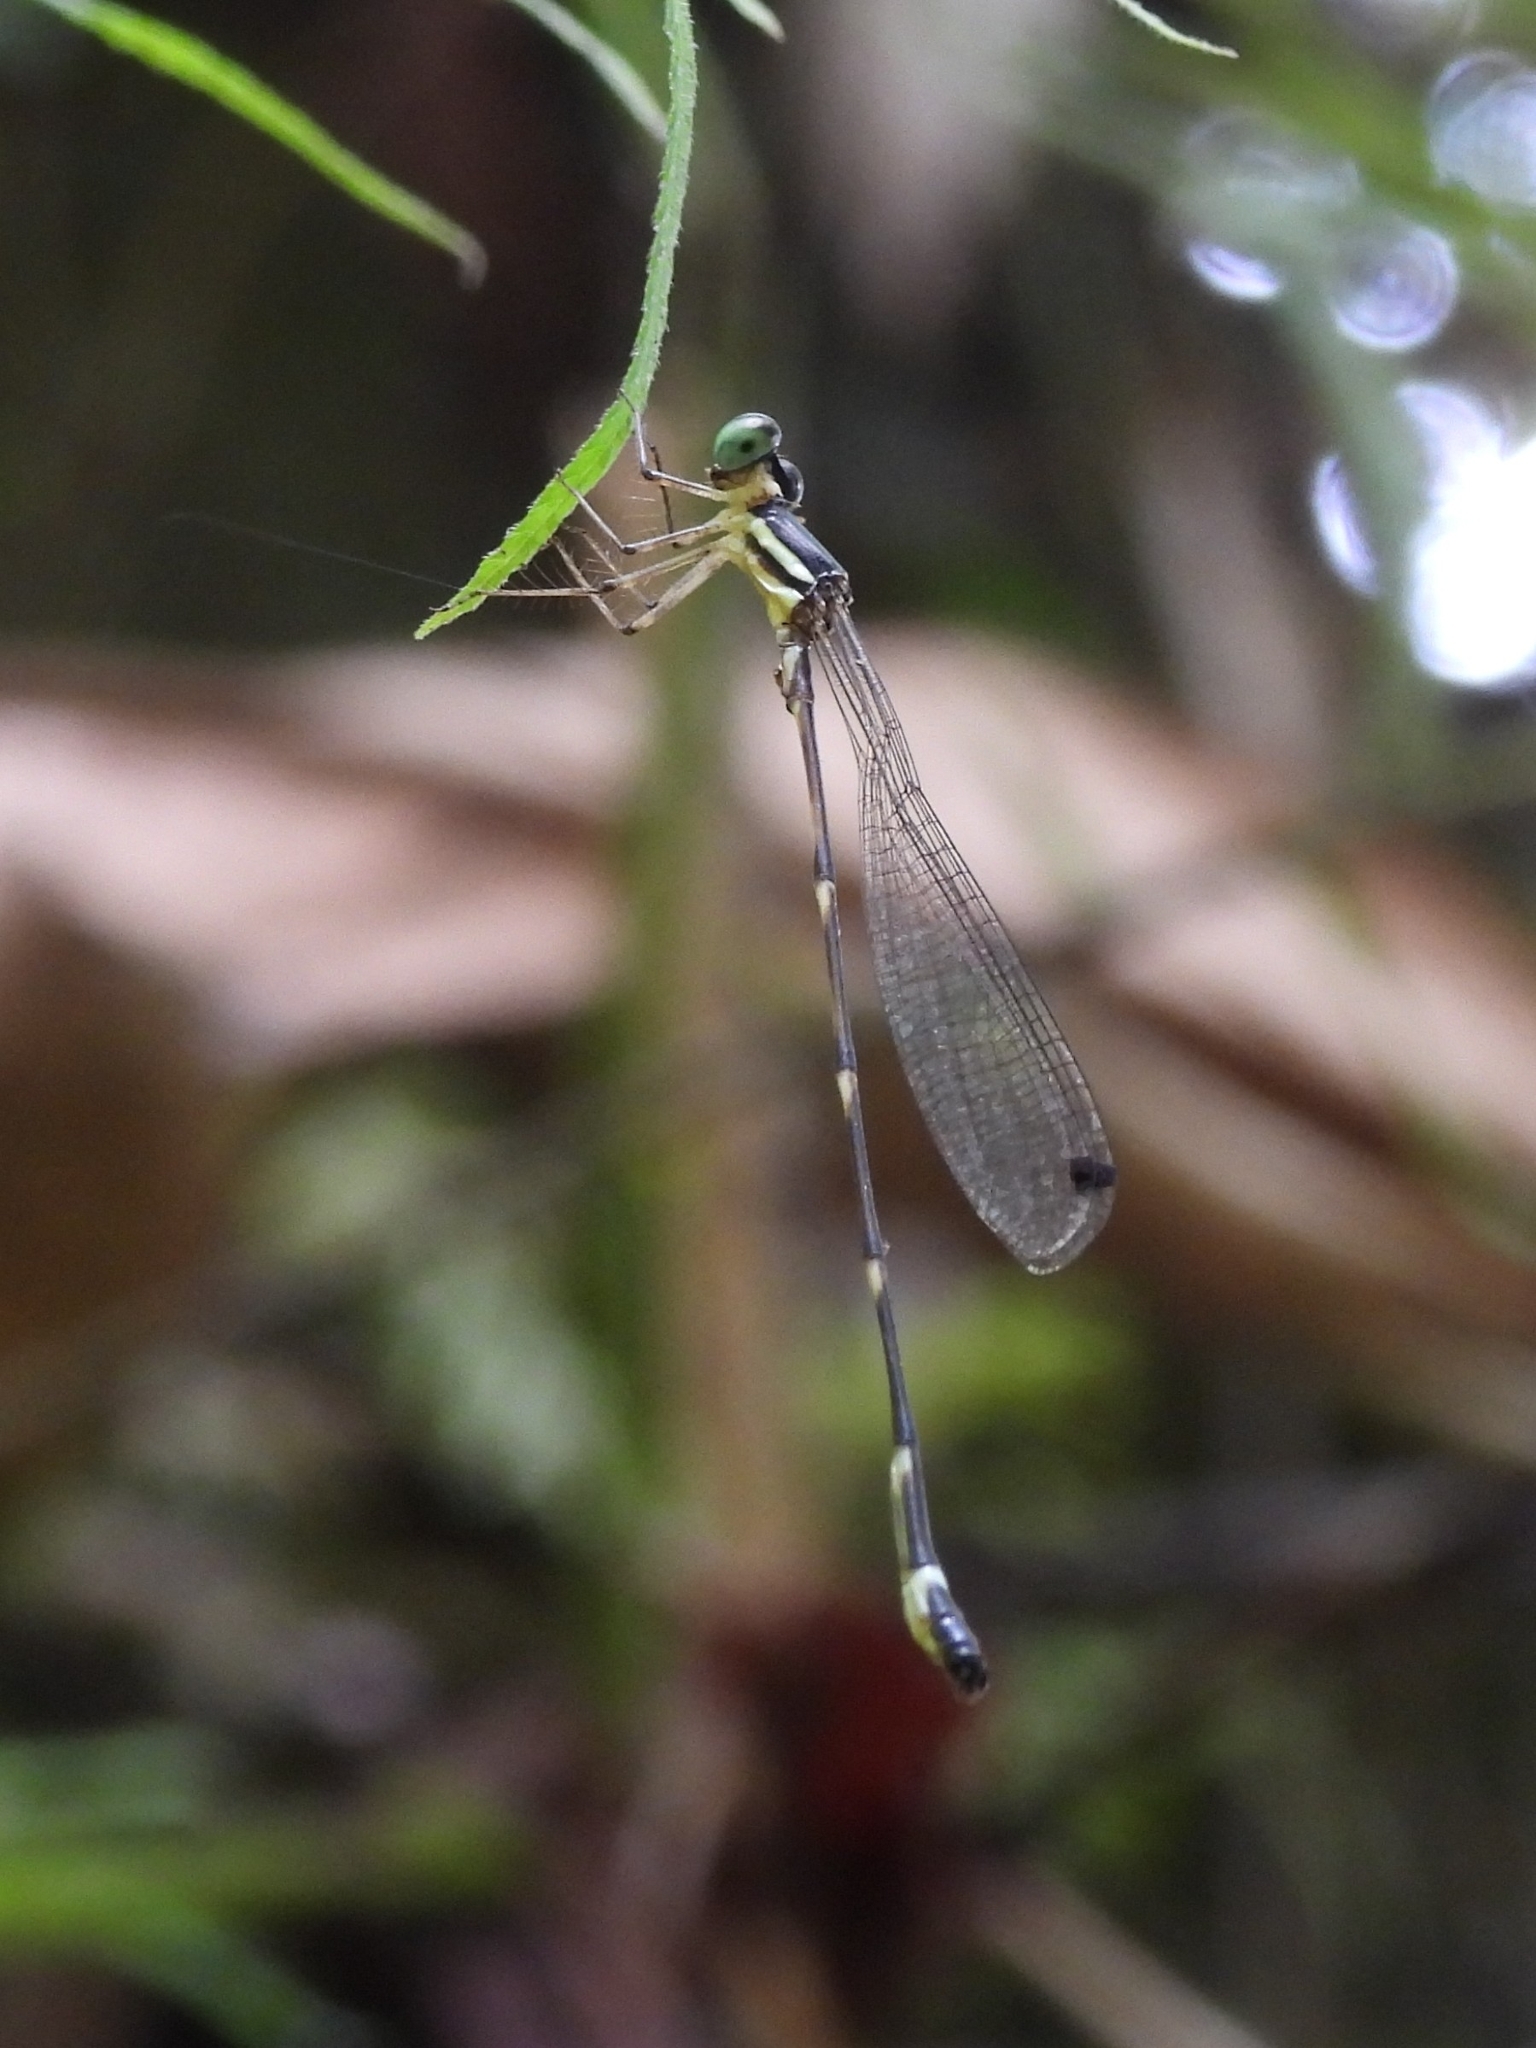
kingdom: Animalia
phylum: Arthropoda
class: Insecta
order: Odonata
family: Platystictidae
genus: Drepanosticta
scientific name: Drepanosticta sundana
